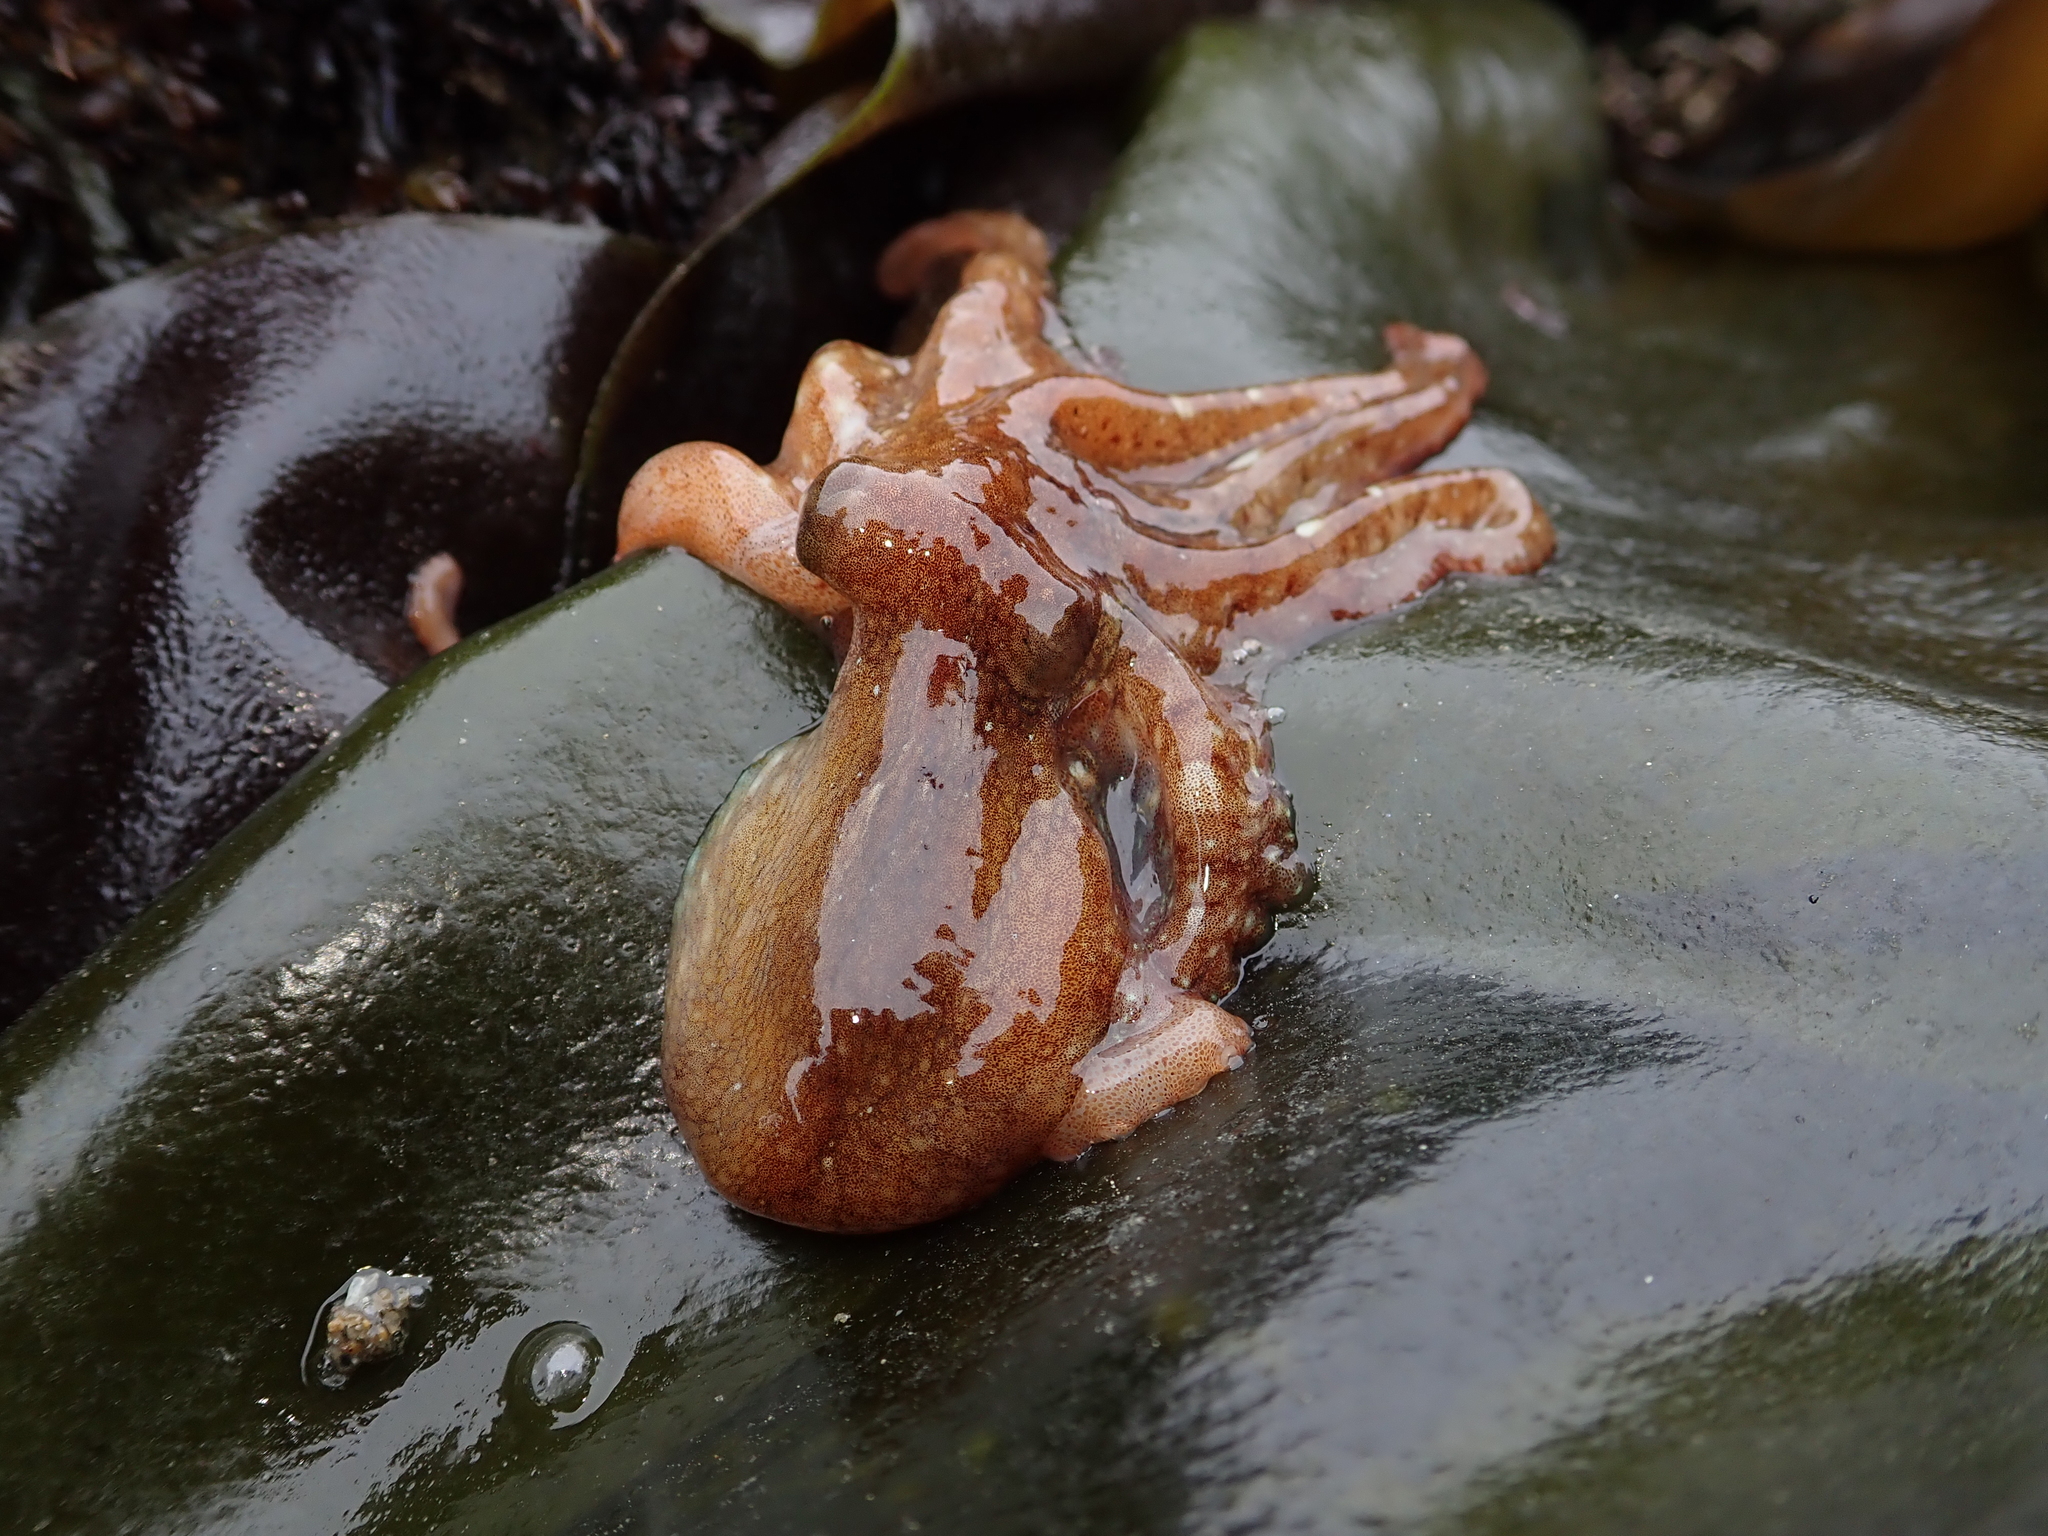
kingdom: Animalia
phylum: Mollusca
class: Cephalopoda
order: Octopoda
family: Octopodidae
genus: Octopus
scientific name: Octopus rubescens
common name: East pacific red octopus
